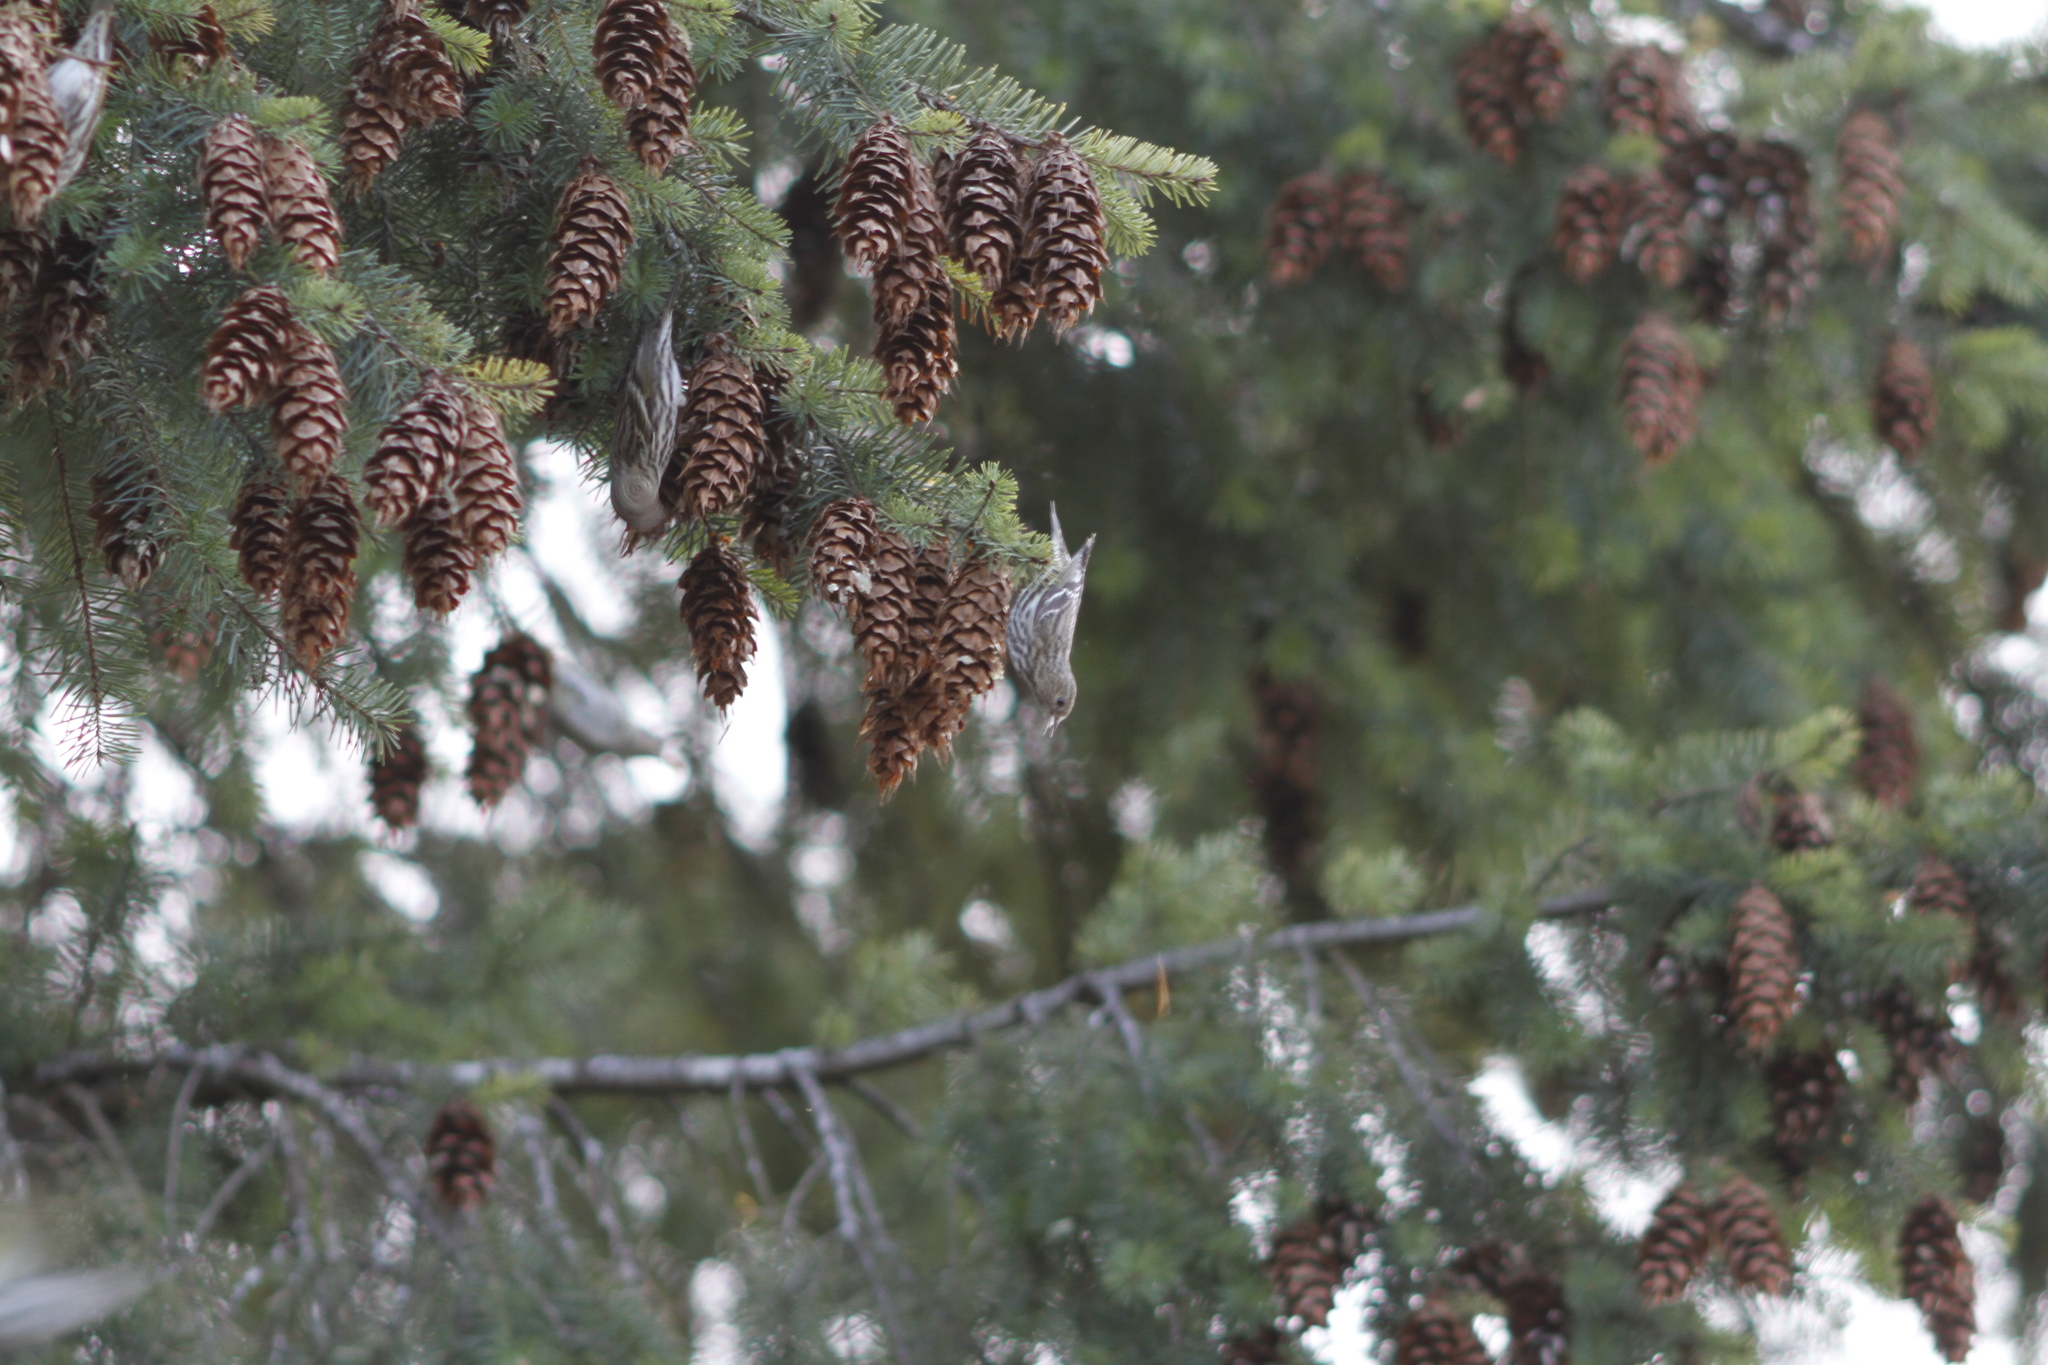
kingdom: Animalia
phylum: Chordata
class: Aves
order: Passeriformes
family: Fringillidae
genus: Spinus
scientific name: Spinus pinus
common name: Pine siskin
